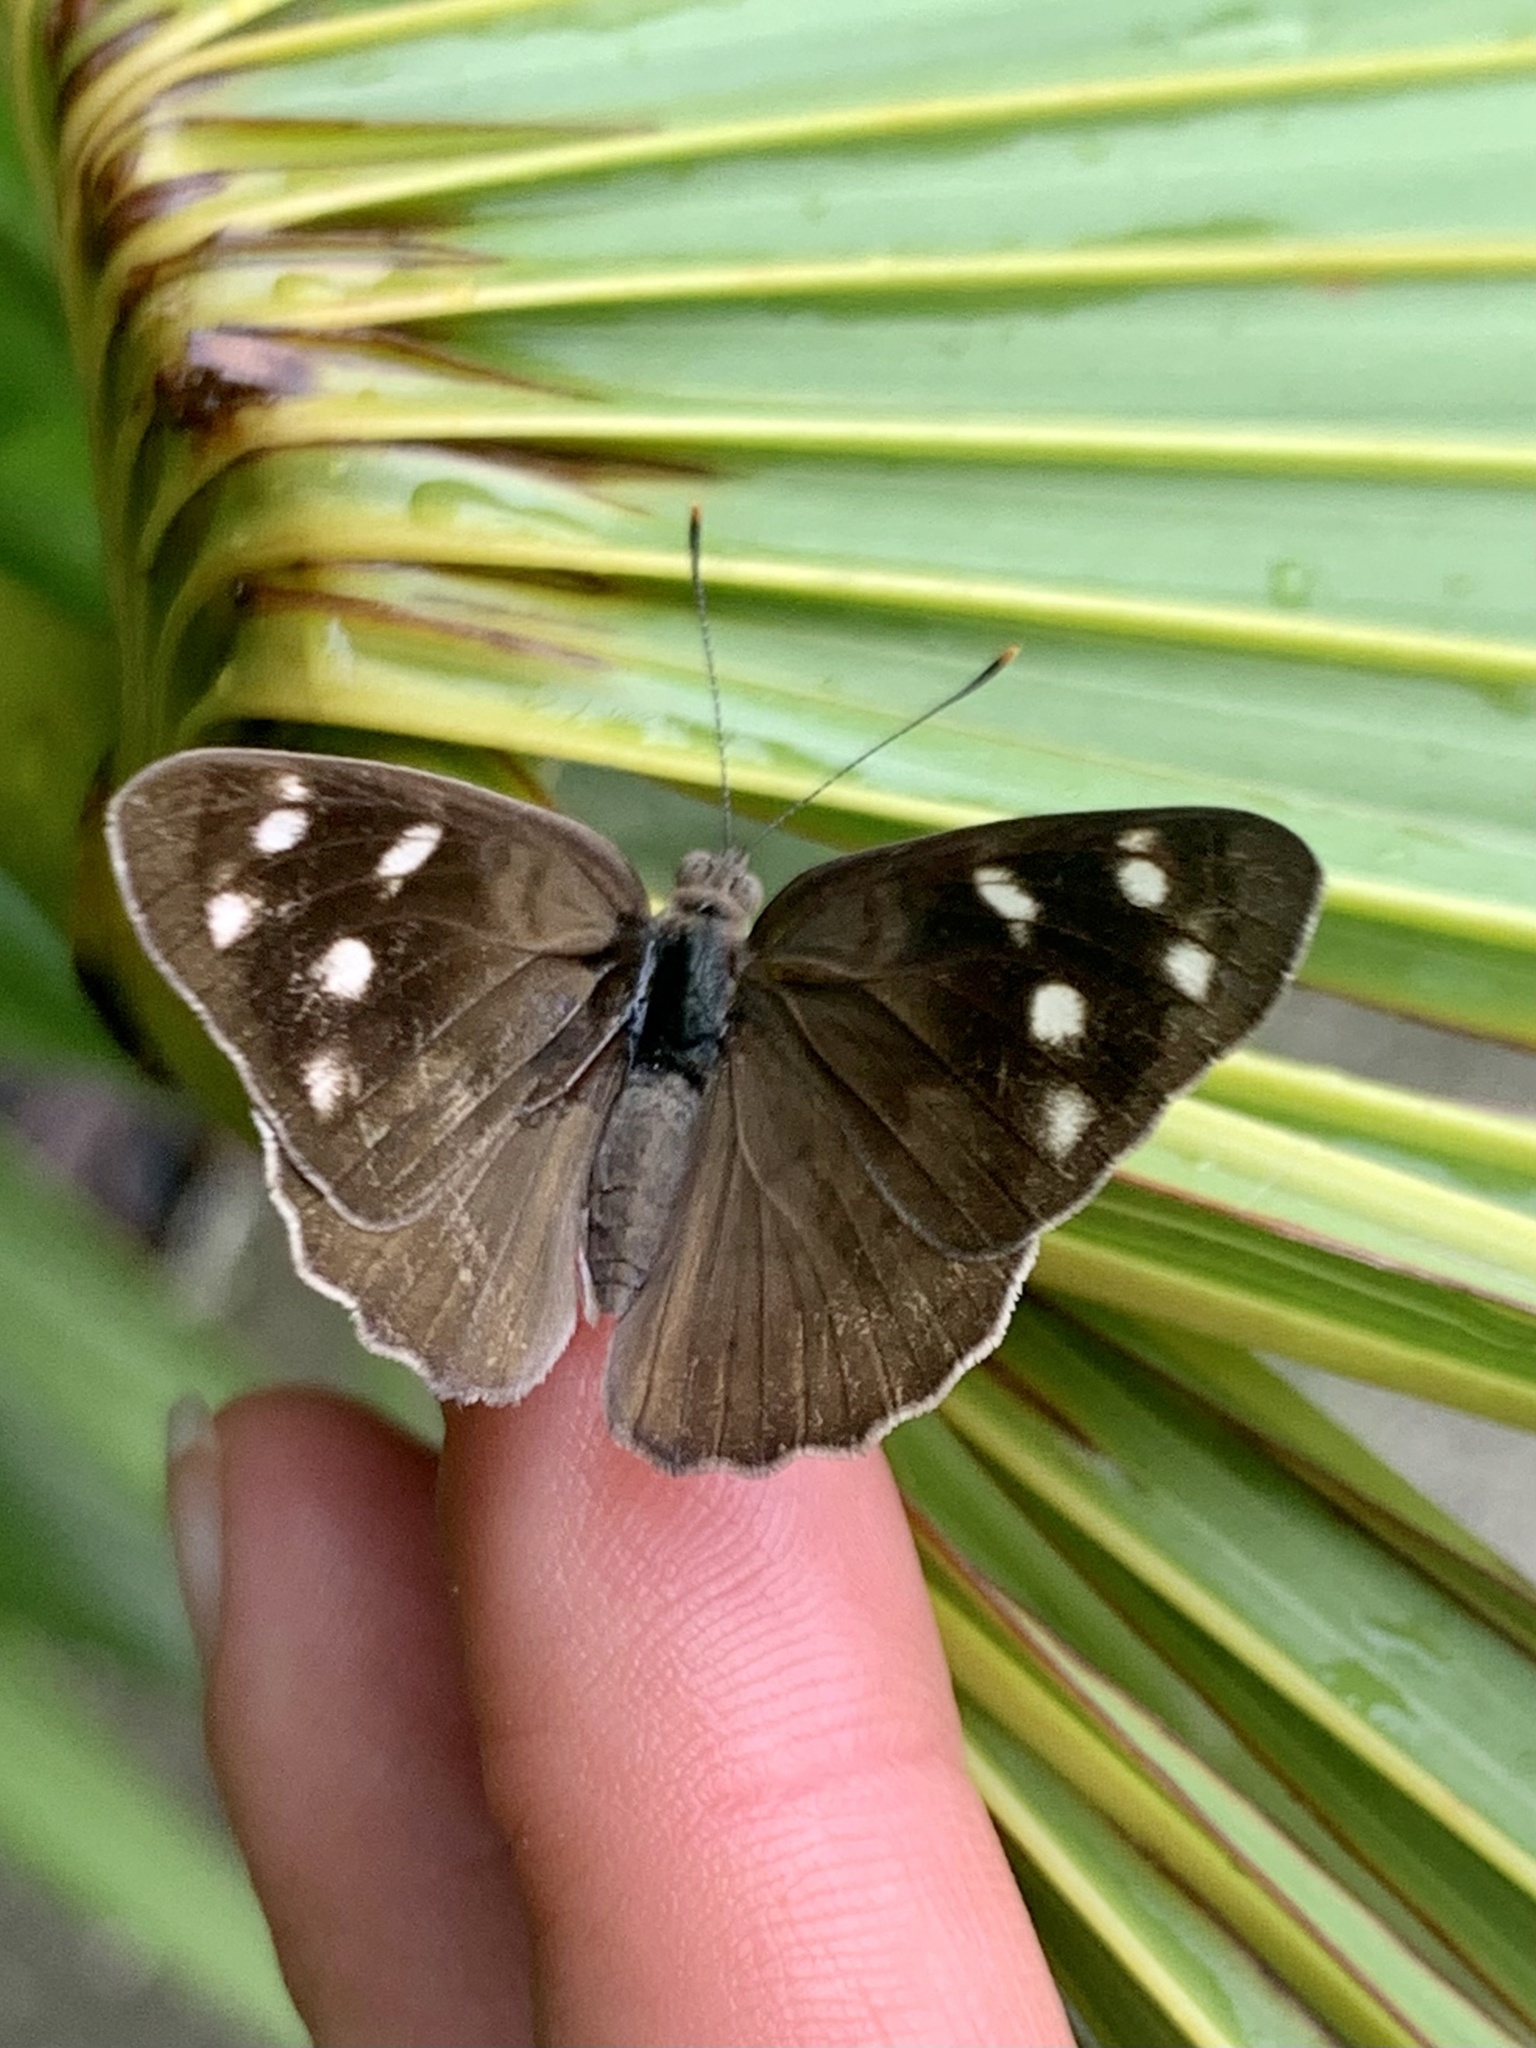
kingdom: Animalia
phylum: Arthropoda
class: Insecta
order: Lepidoptera
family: Nymphalidae
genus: Eunica
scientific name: Eunica monima
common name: Dingy purplewing
